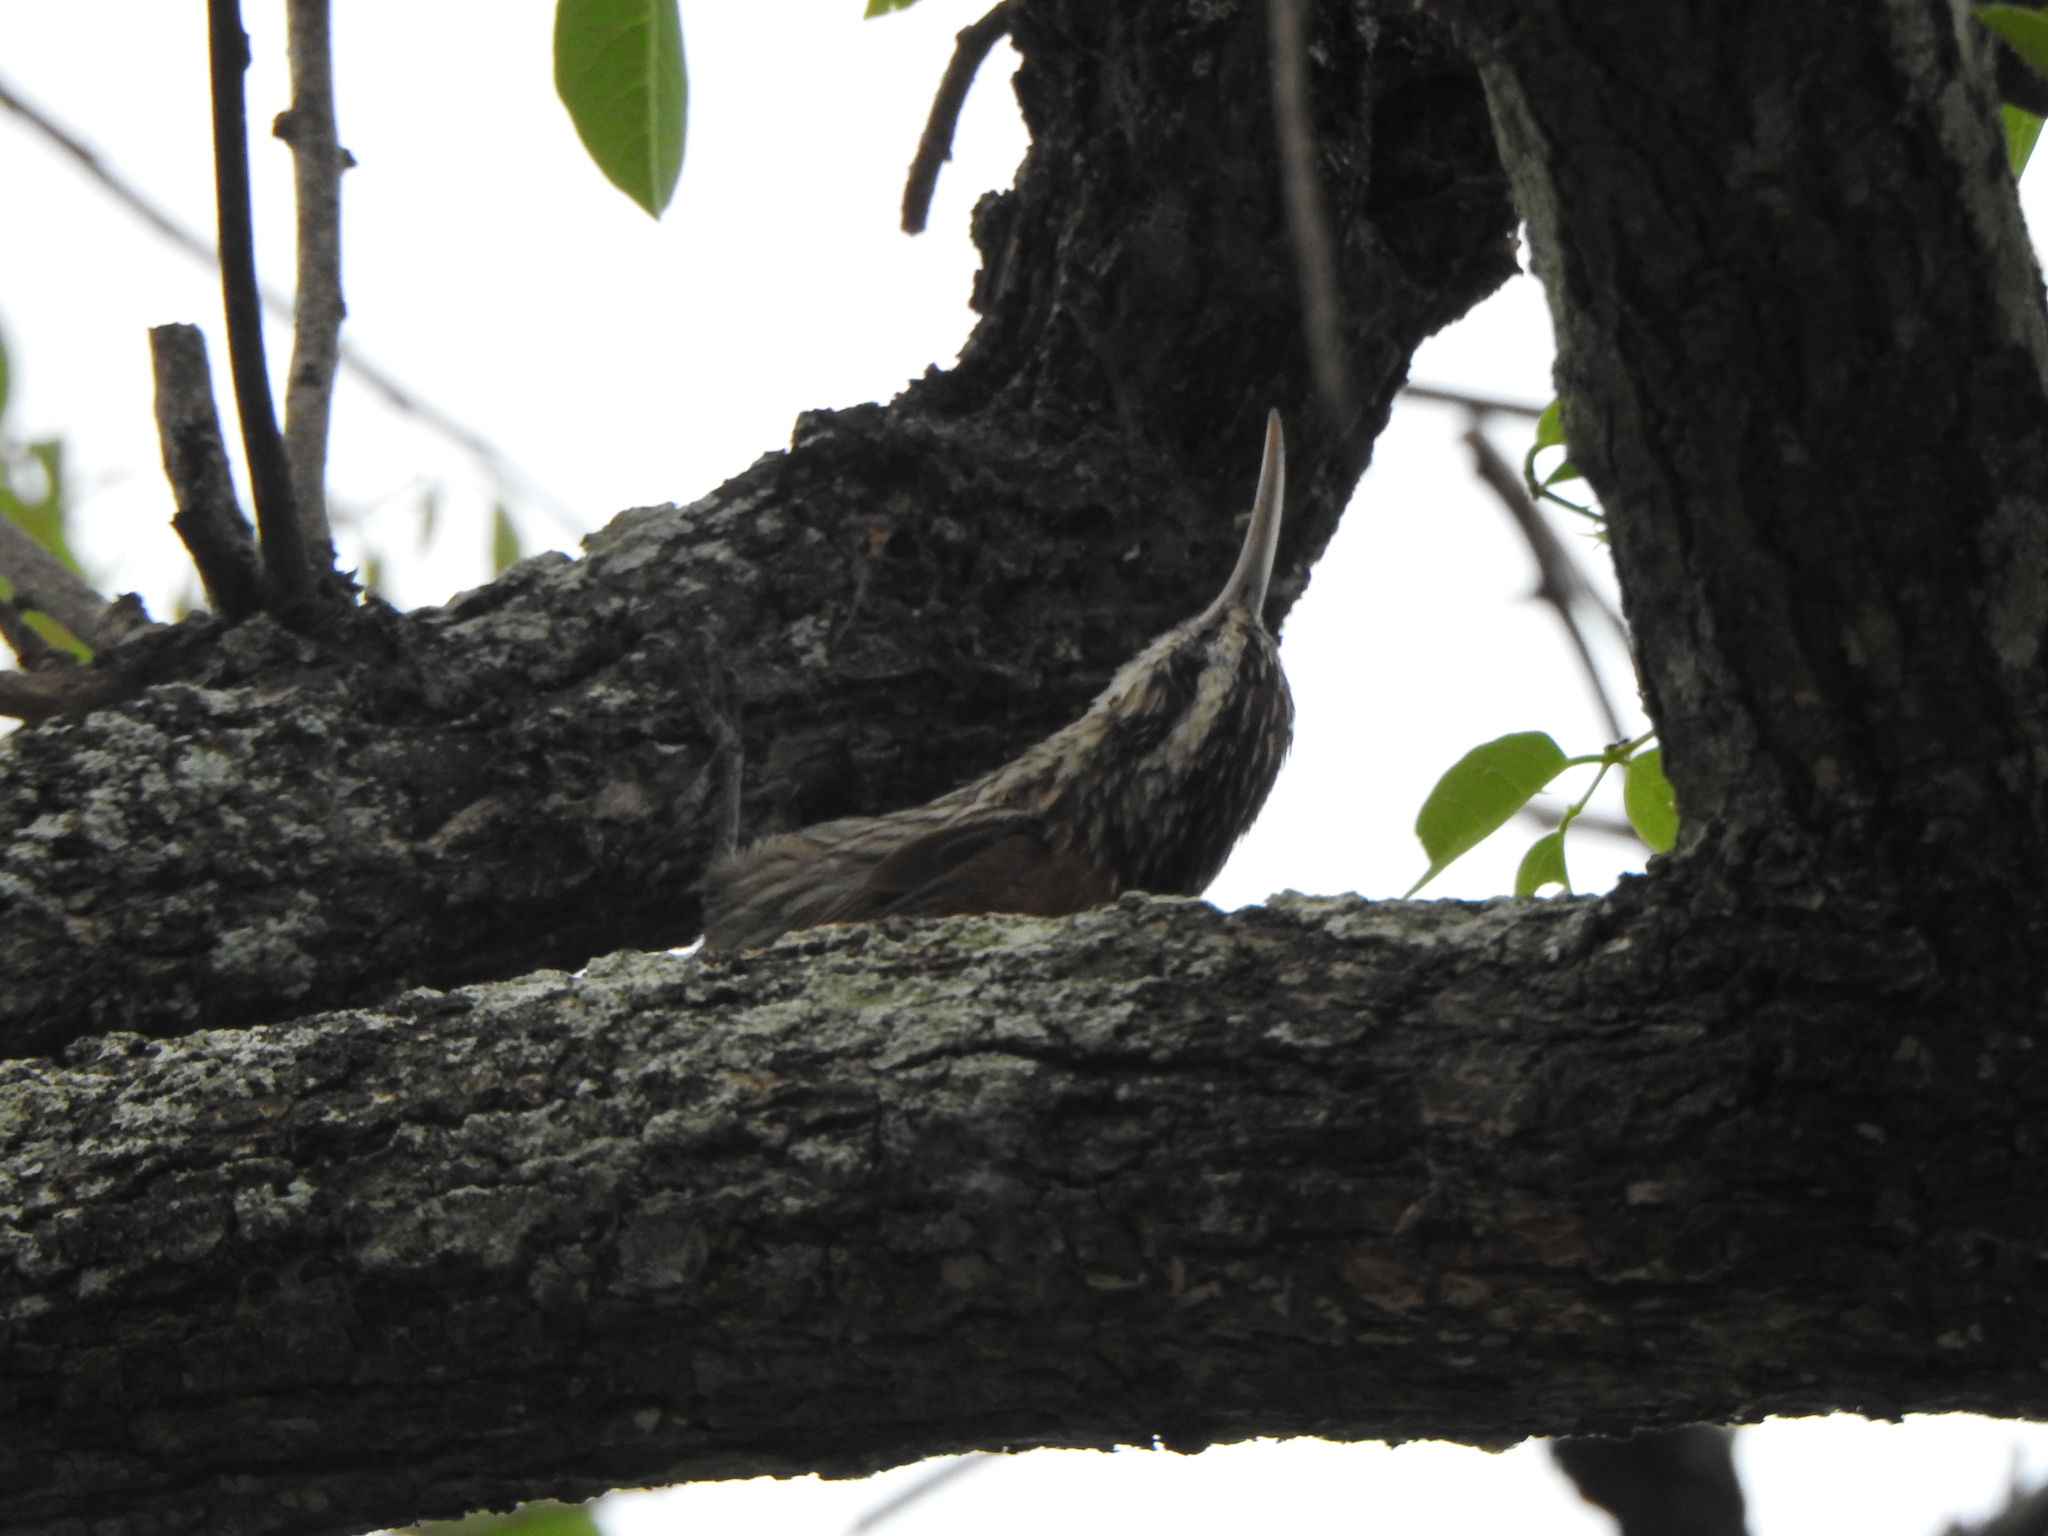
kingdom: Animalia
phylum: Chordata
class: Aves
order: Passeriformes
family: Furnariidae
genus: Lepidocolaptes
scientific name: Lepidocolaptes angustirostris
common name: Narrow-billed woodcreeper
